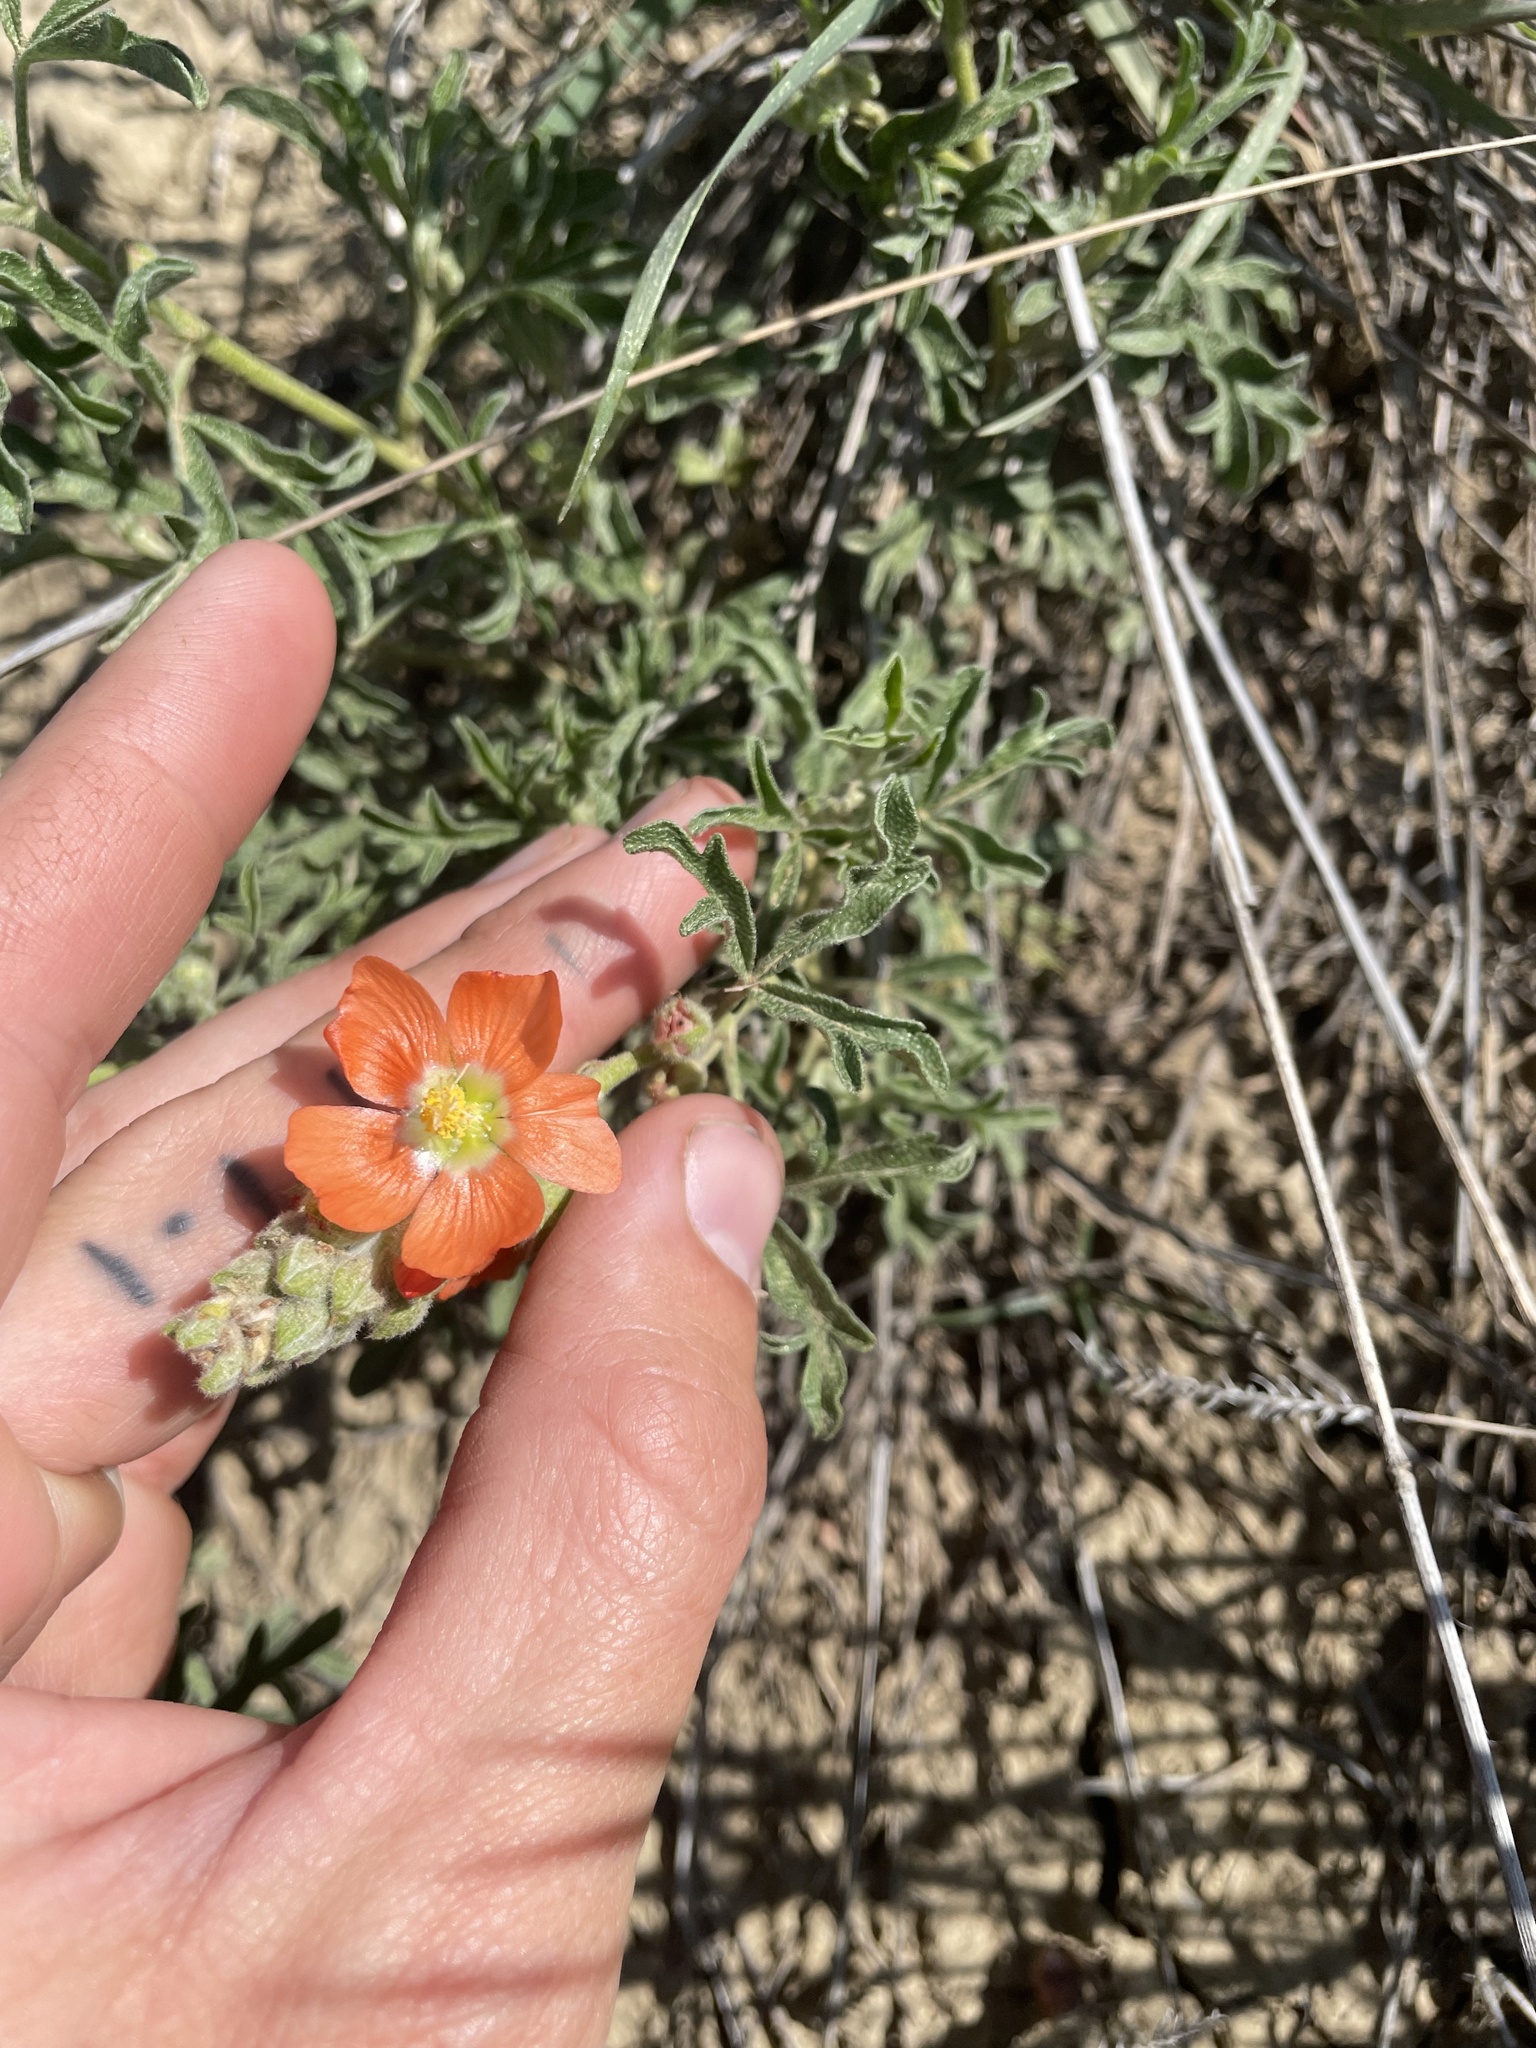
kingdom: Plantae
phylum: Tracheophyta
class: Magnoliopsida
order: Malvales
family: Malvaceae
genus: Sphaeralcea
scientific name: Sphaeralcea coccinea
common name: Moss-rose
